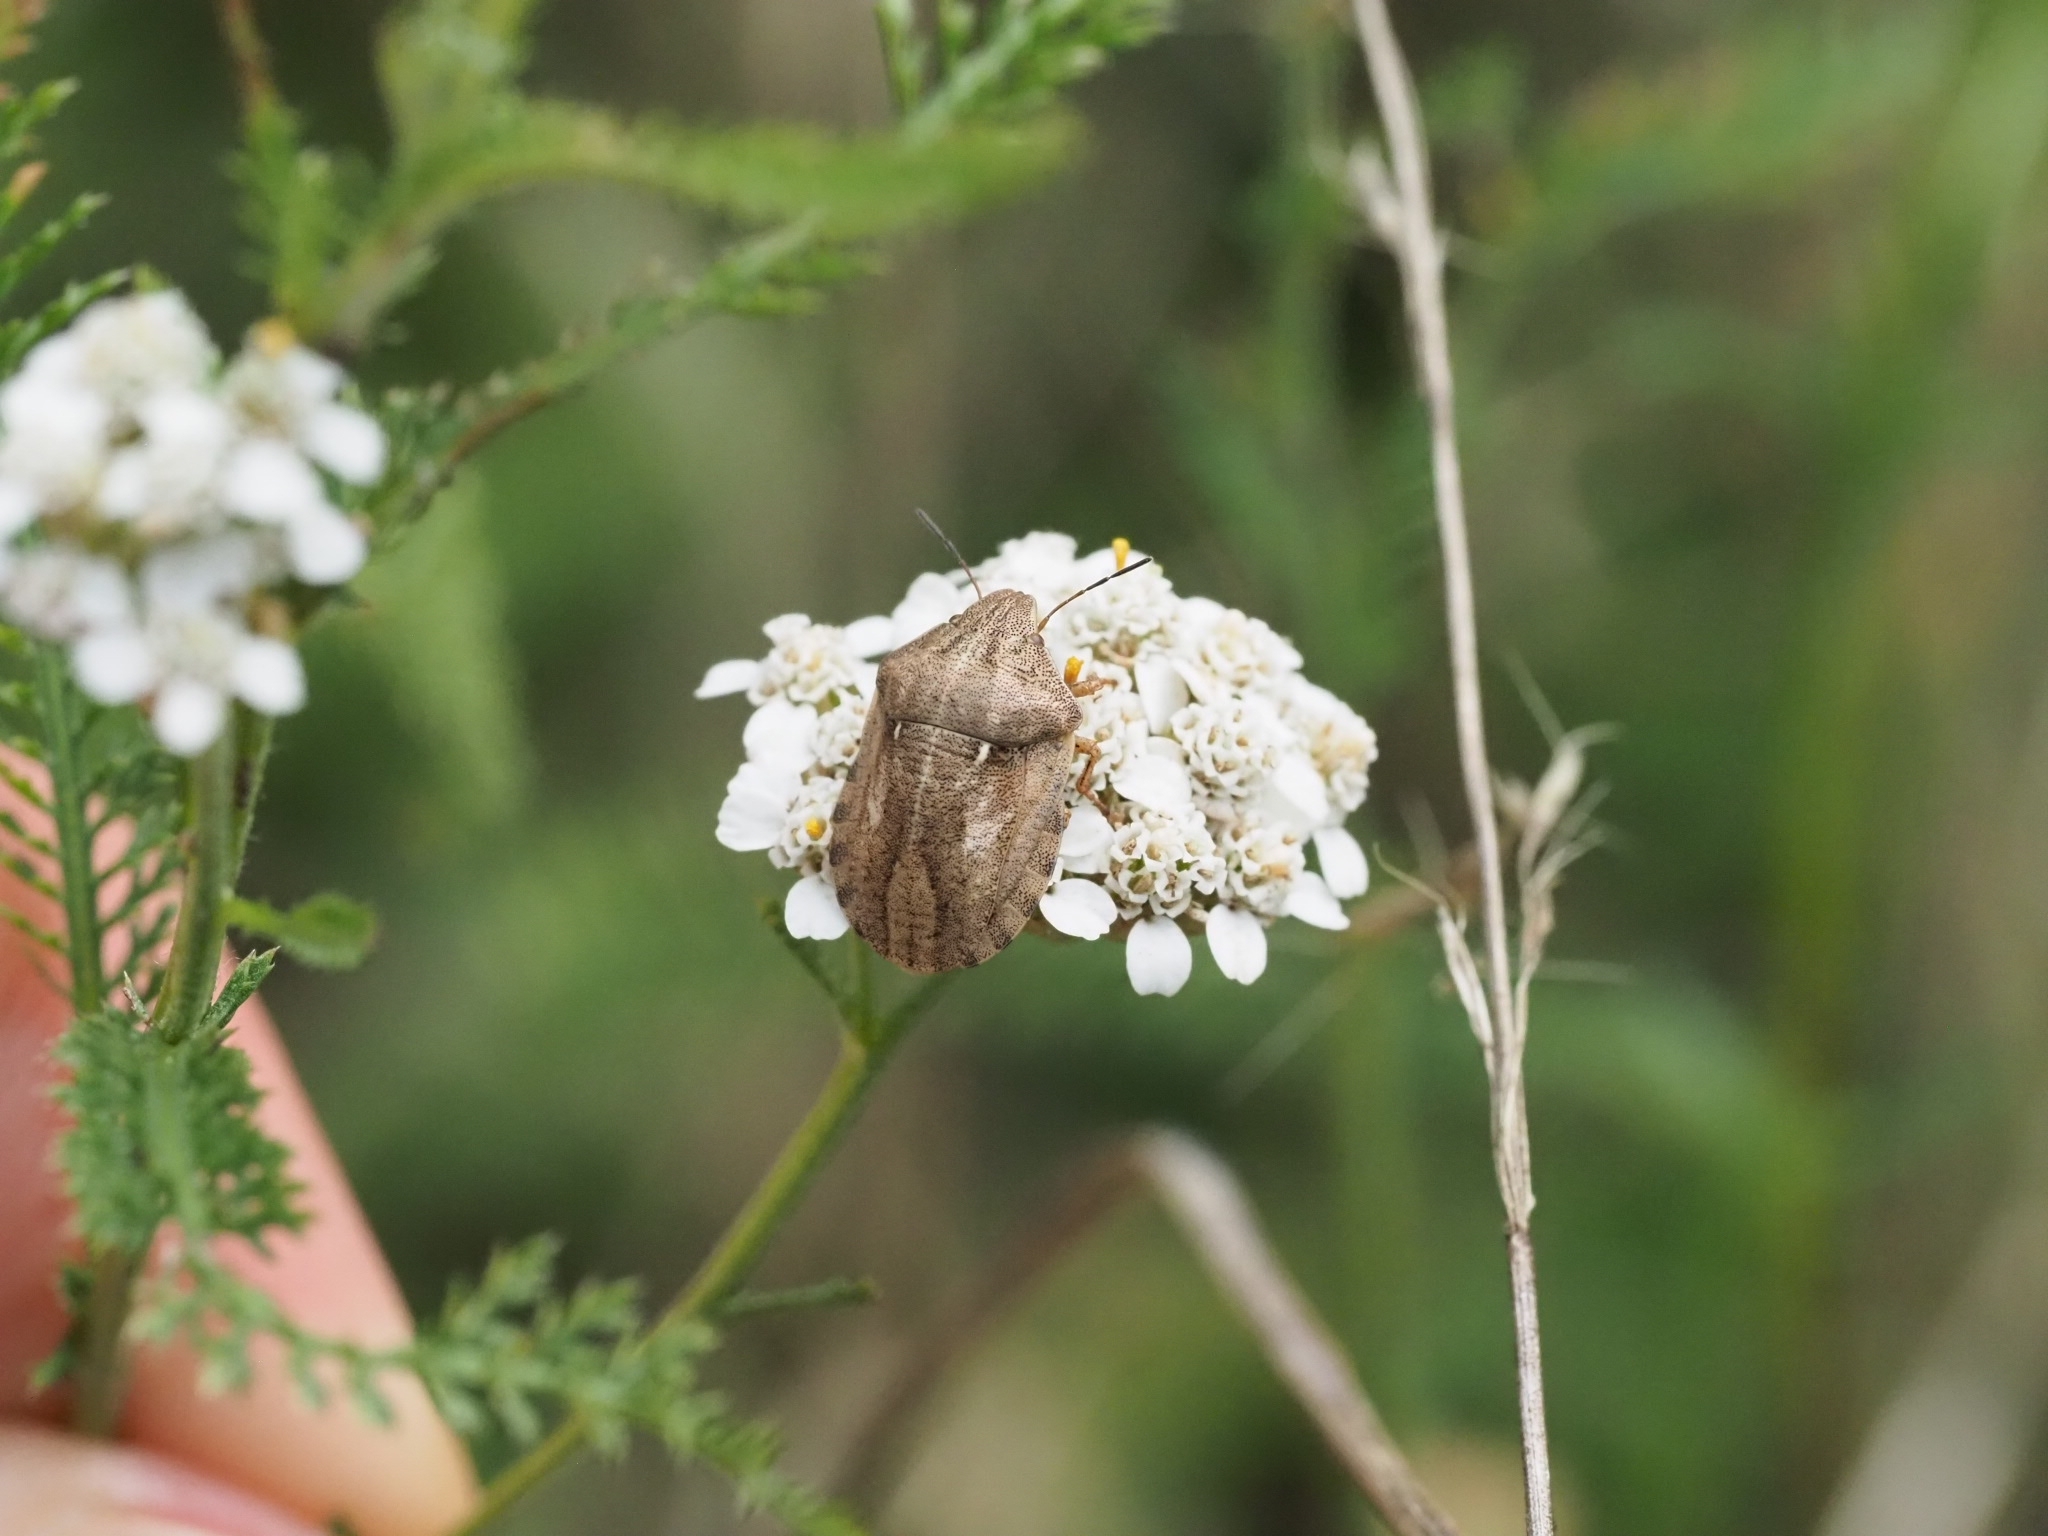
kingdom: Animalia
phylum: Arthropoda
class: Insecta
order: Hemiptera
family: Scutelleridae
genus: Eurygaster
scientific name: Eurygaster testudinaria
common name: Tortoise bug
